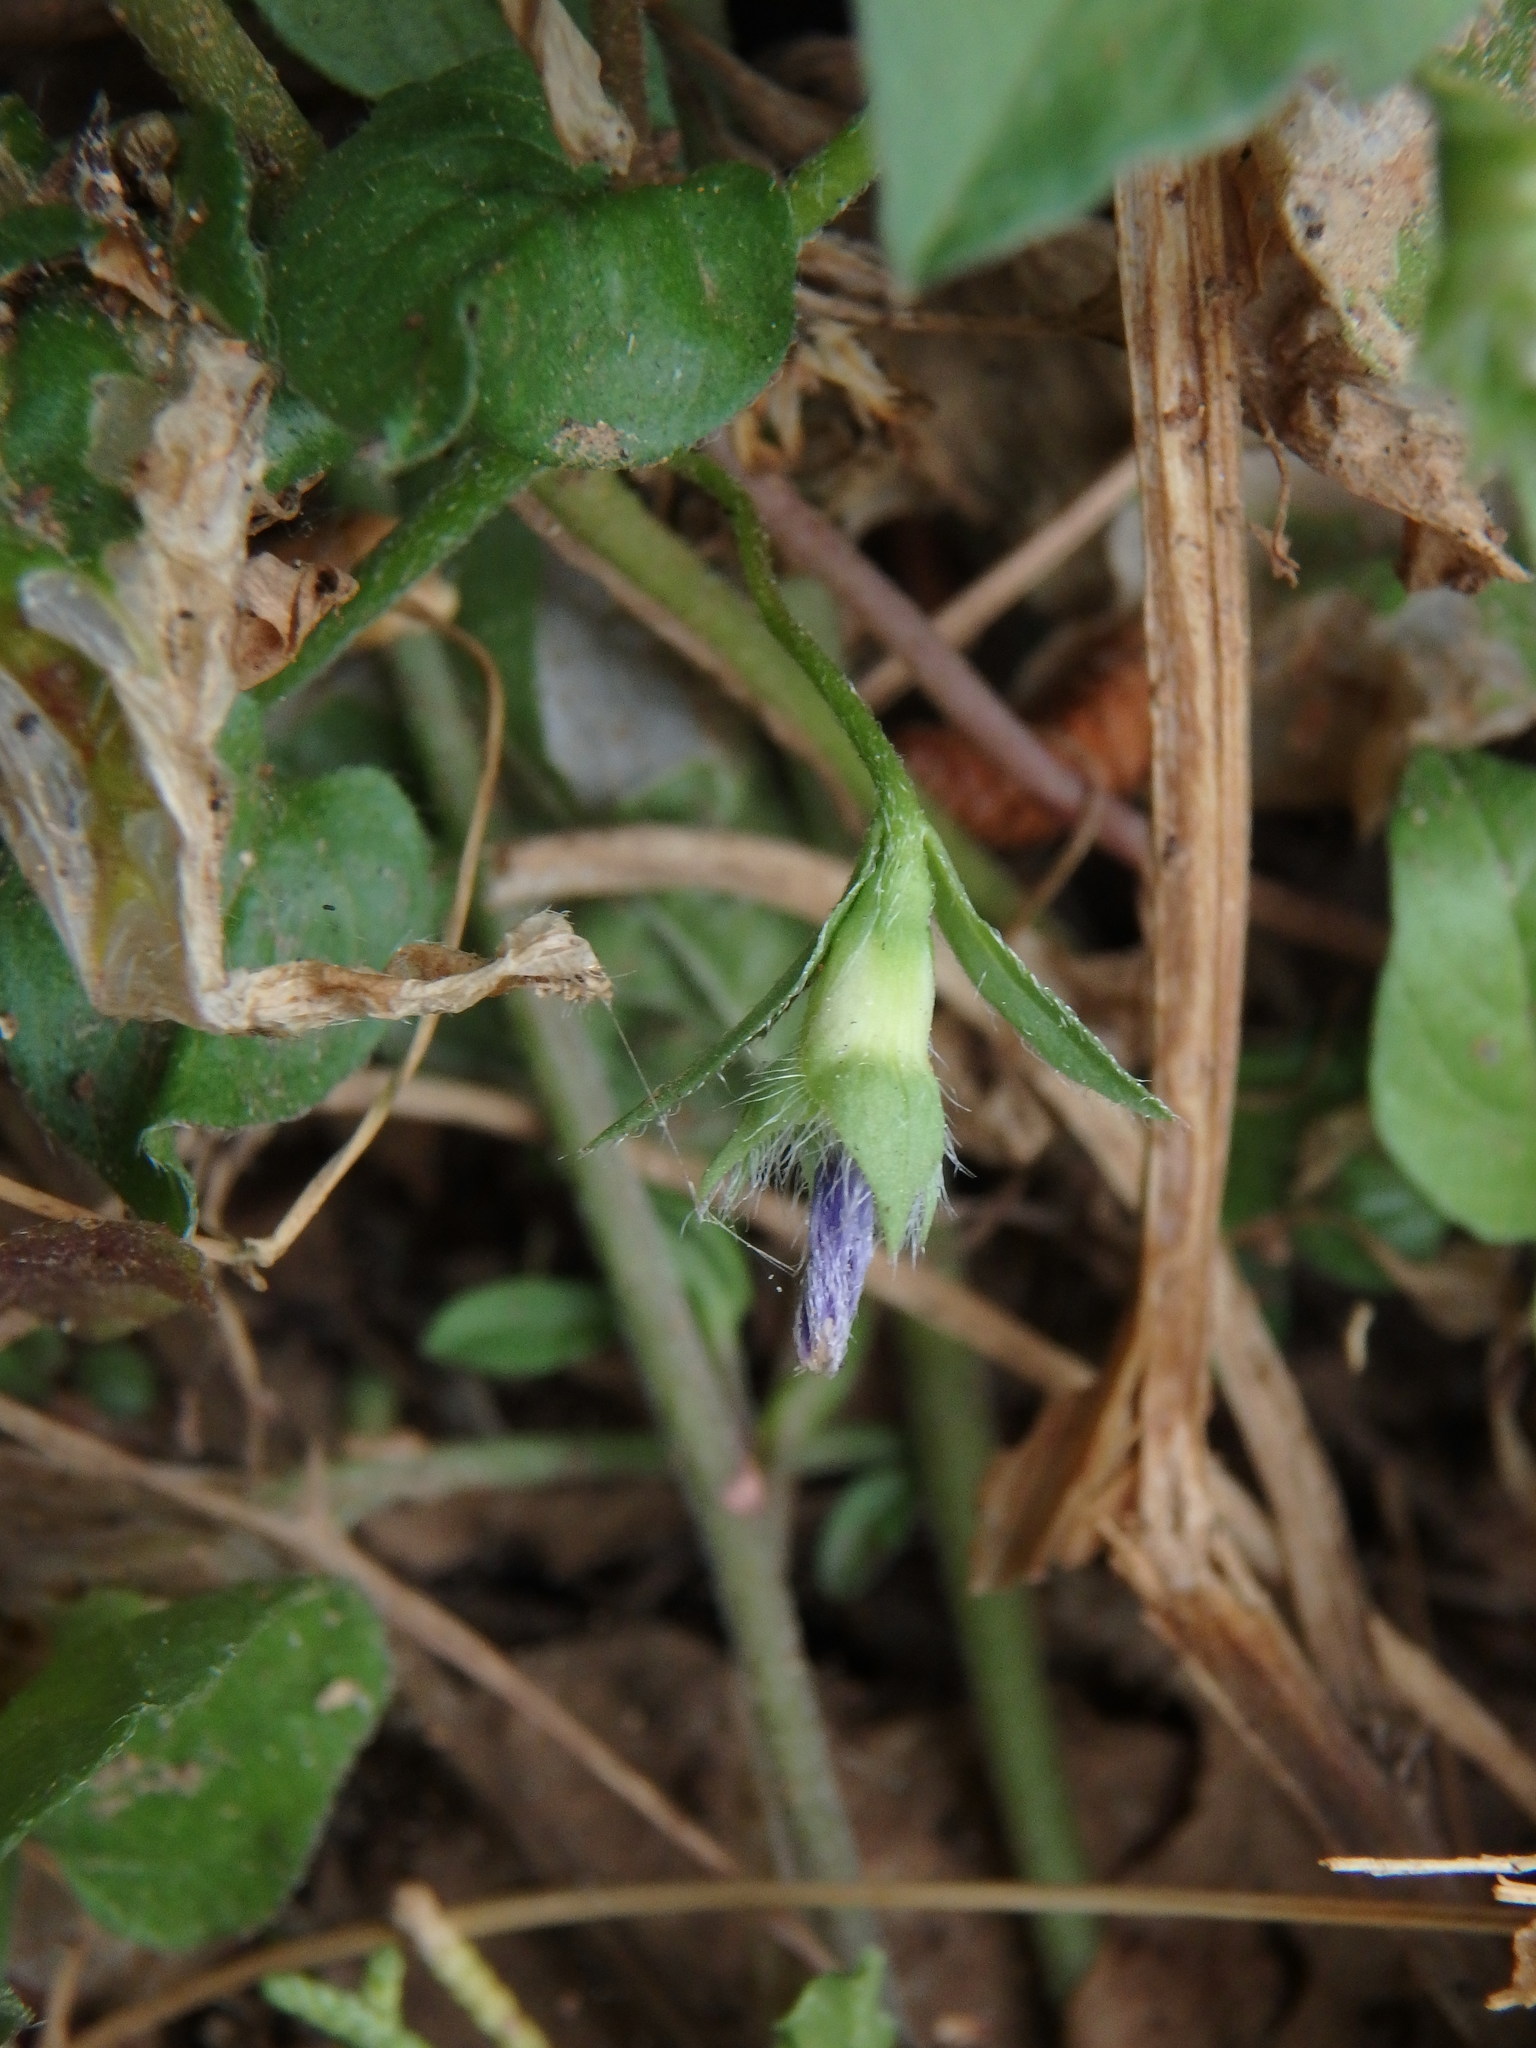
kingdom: Plantae
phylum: Tracheophyta
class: Magnoliopsida
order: Solanales
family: Convolvulaceae
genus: Convolvulus
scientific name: Convolvulus siculus
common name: Small blue-convolvulus
